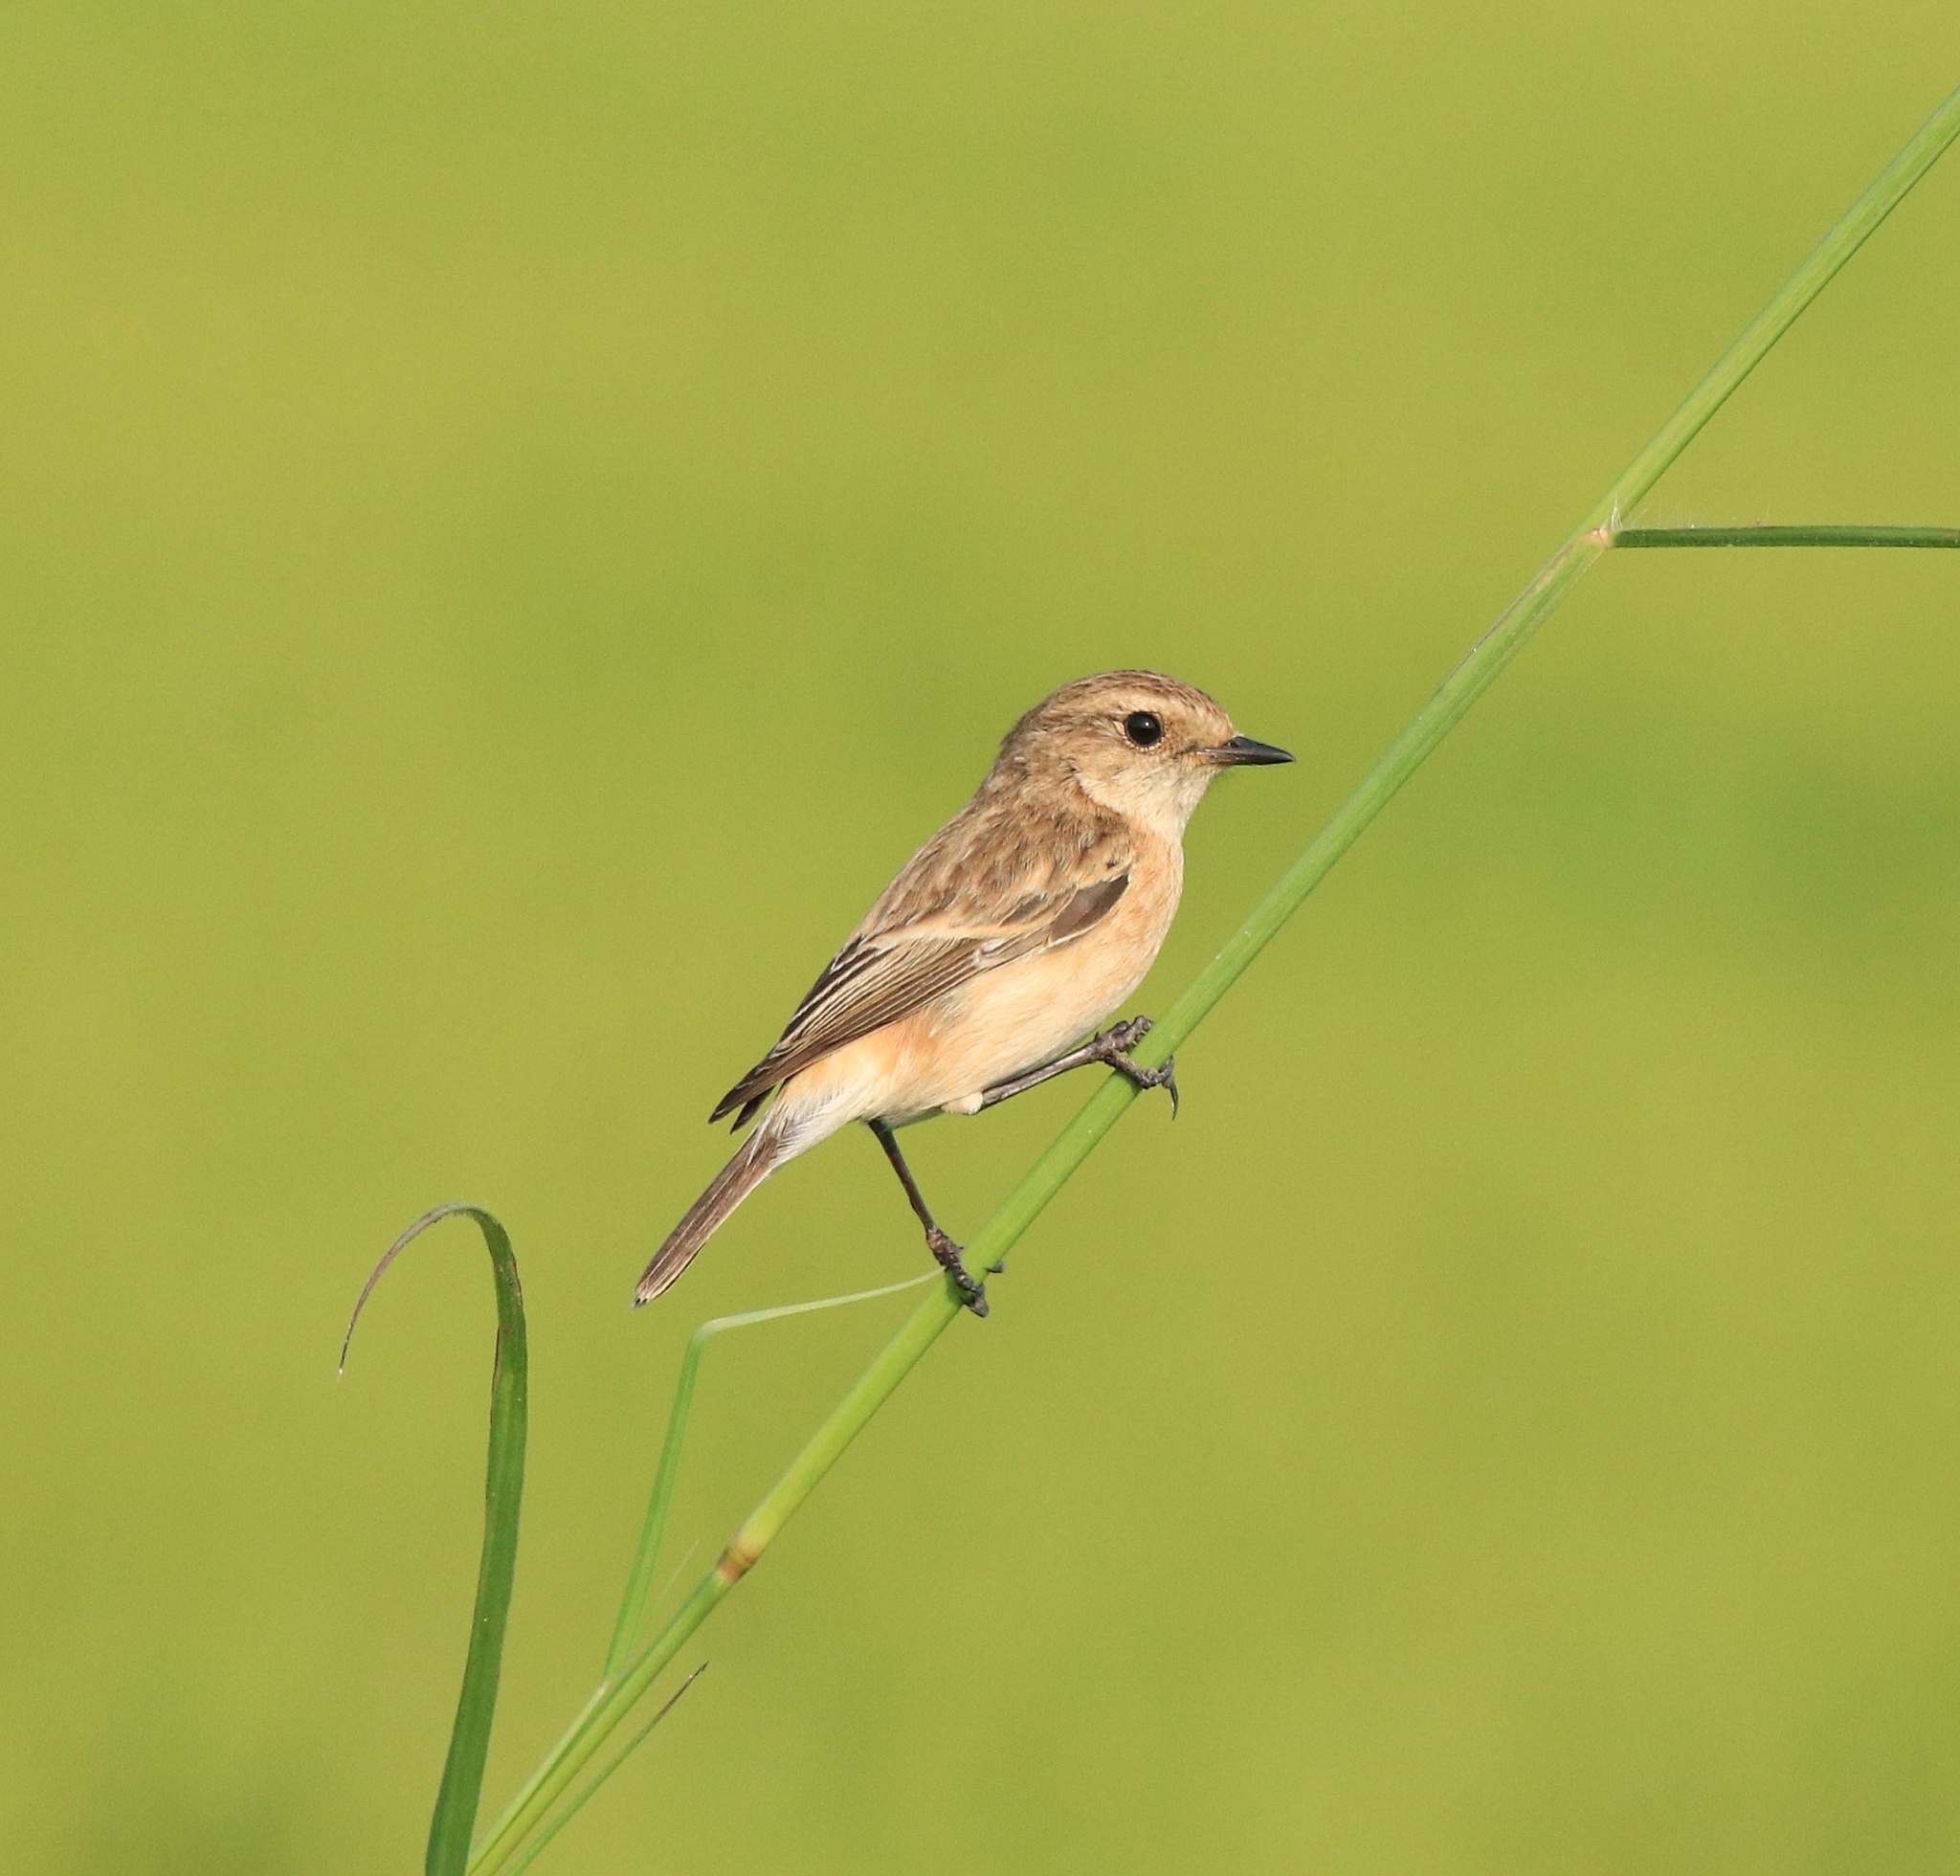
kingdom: Animalia
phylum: Chordata
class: Aves
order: Passeriformes
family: Muscicapidae
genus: Saxicola
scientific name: Saxicola maurus
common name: Siberian stonechat
